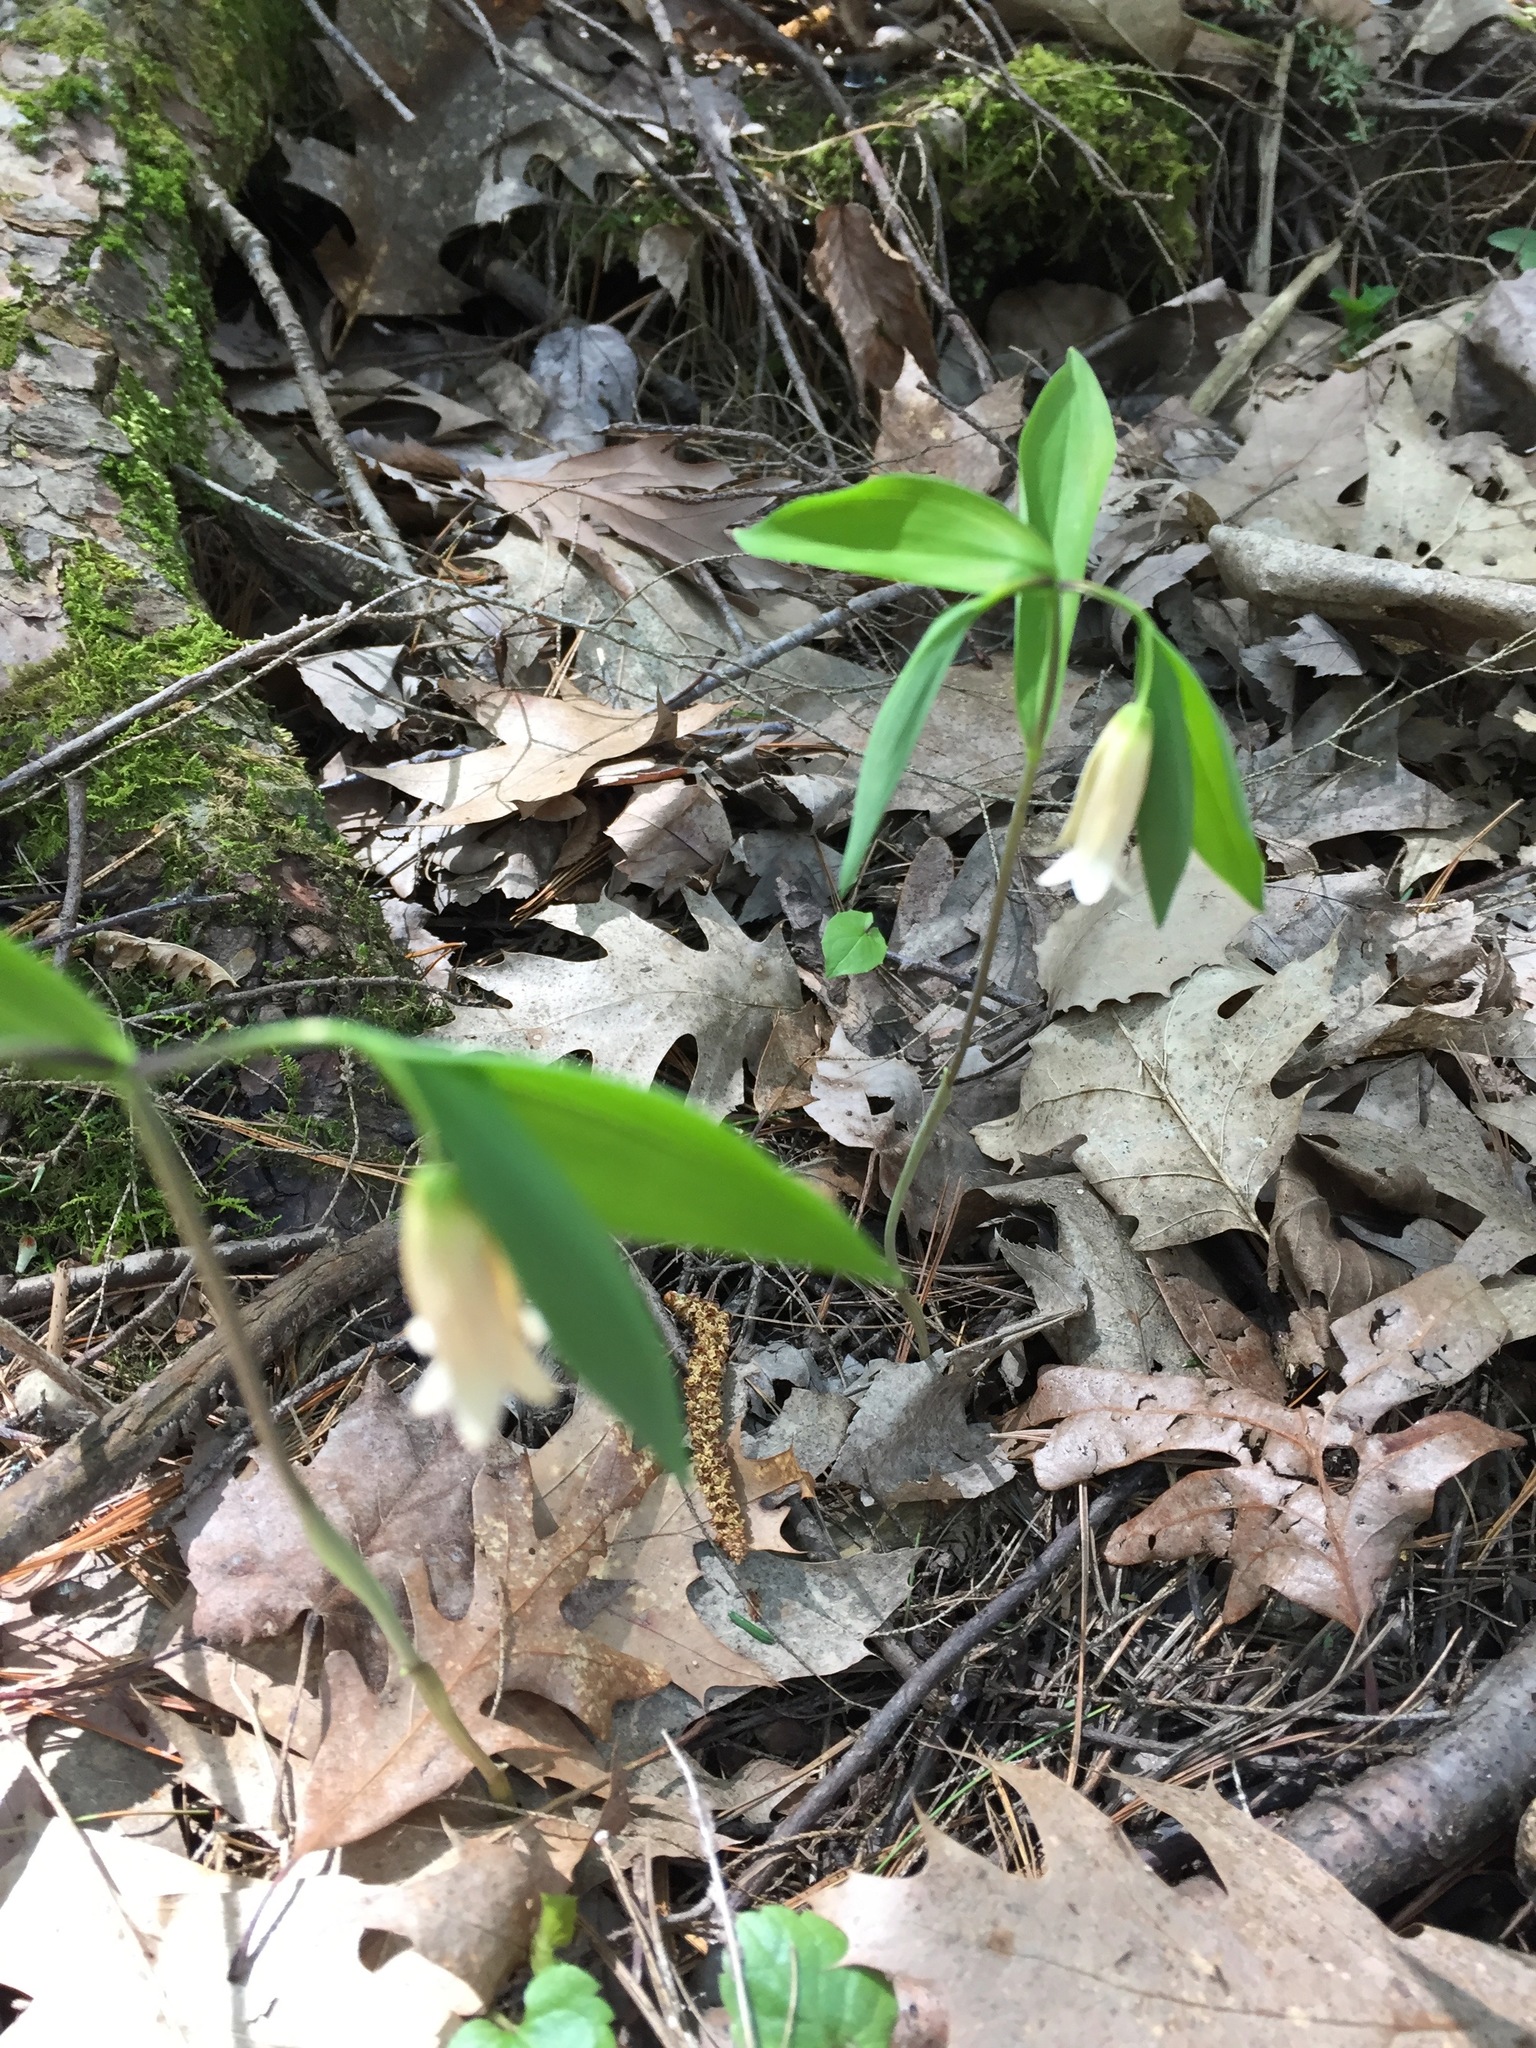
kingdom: Plantae
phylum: Tracheophyta
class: Liliopsida
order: Liliales
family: Colchicaceae
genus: Uvularia
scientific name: Uvularia sessilifolia
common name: Straw-lily
